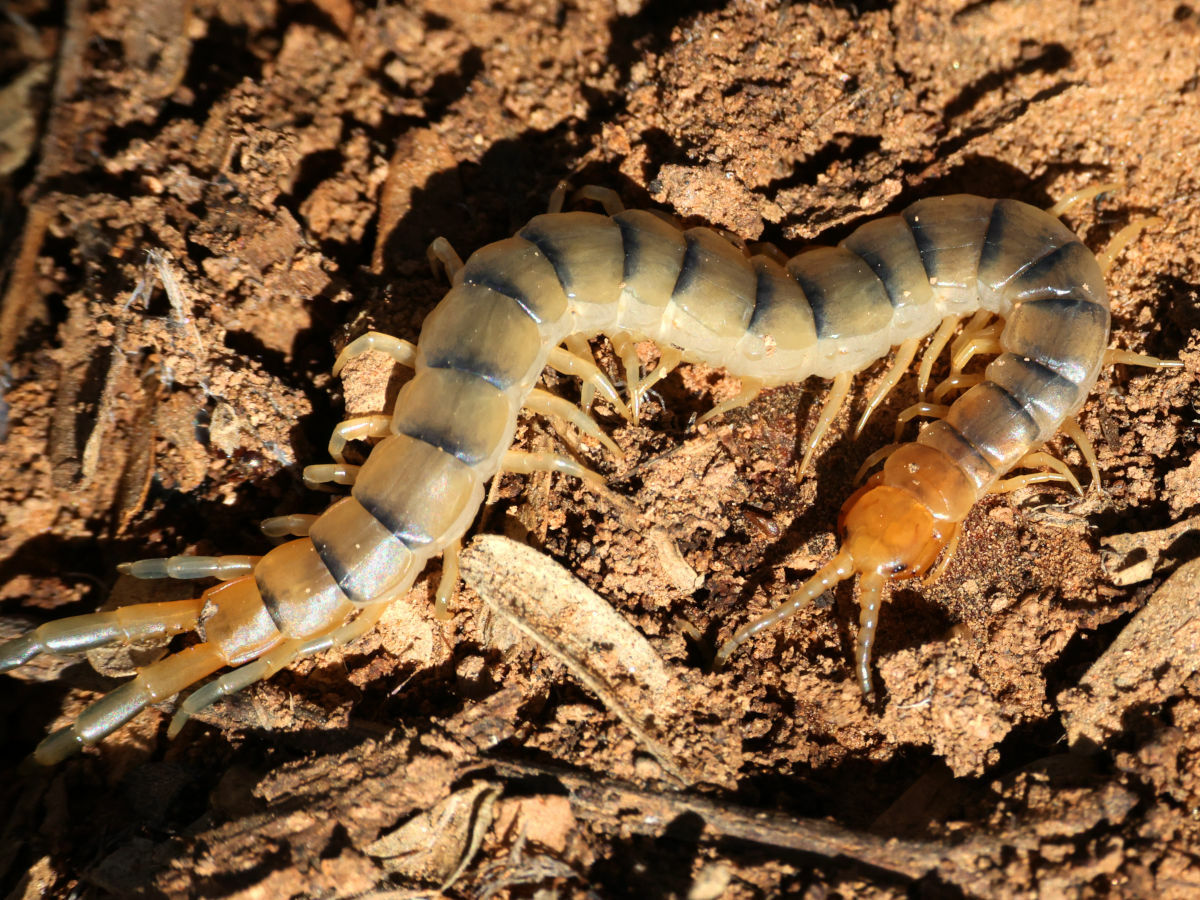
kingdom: Animalia
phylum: Arthropoda
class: Chilopoda
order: Scolopendromorpha
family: Scolopendridae
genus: Scolopendra
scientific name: Scolopendra polymorpha
